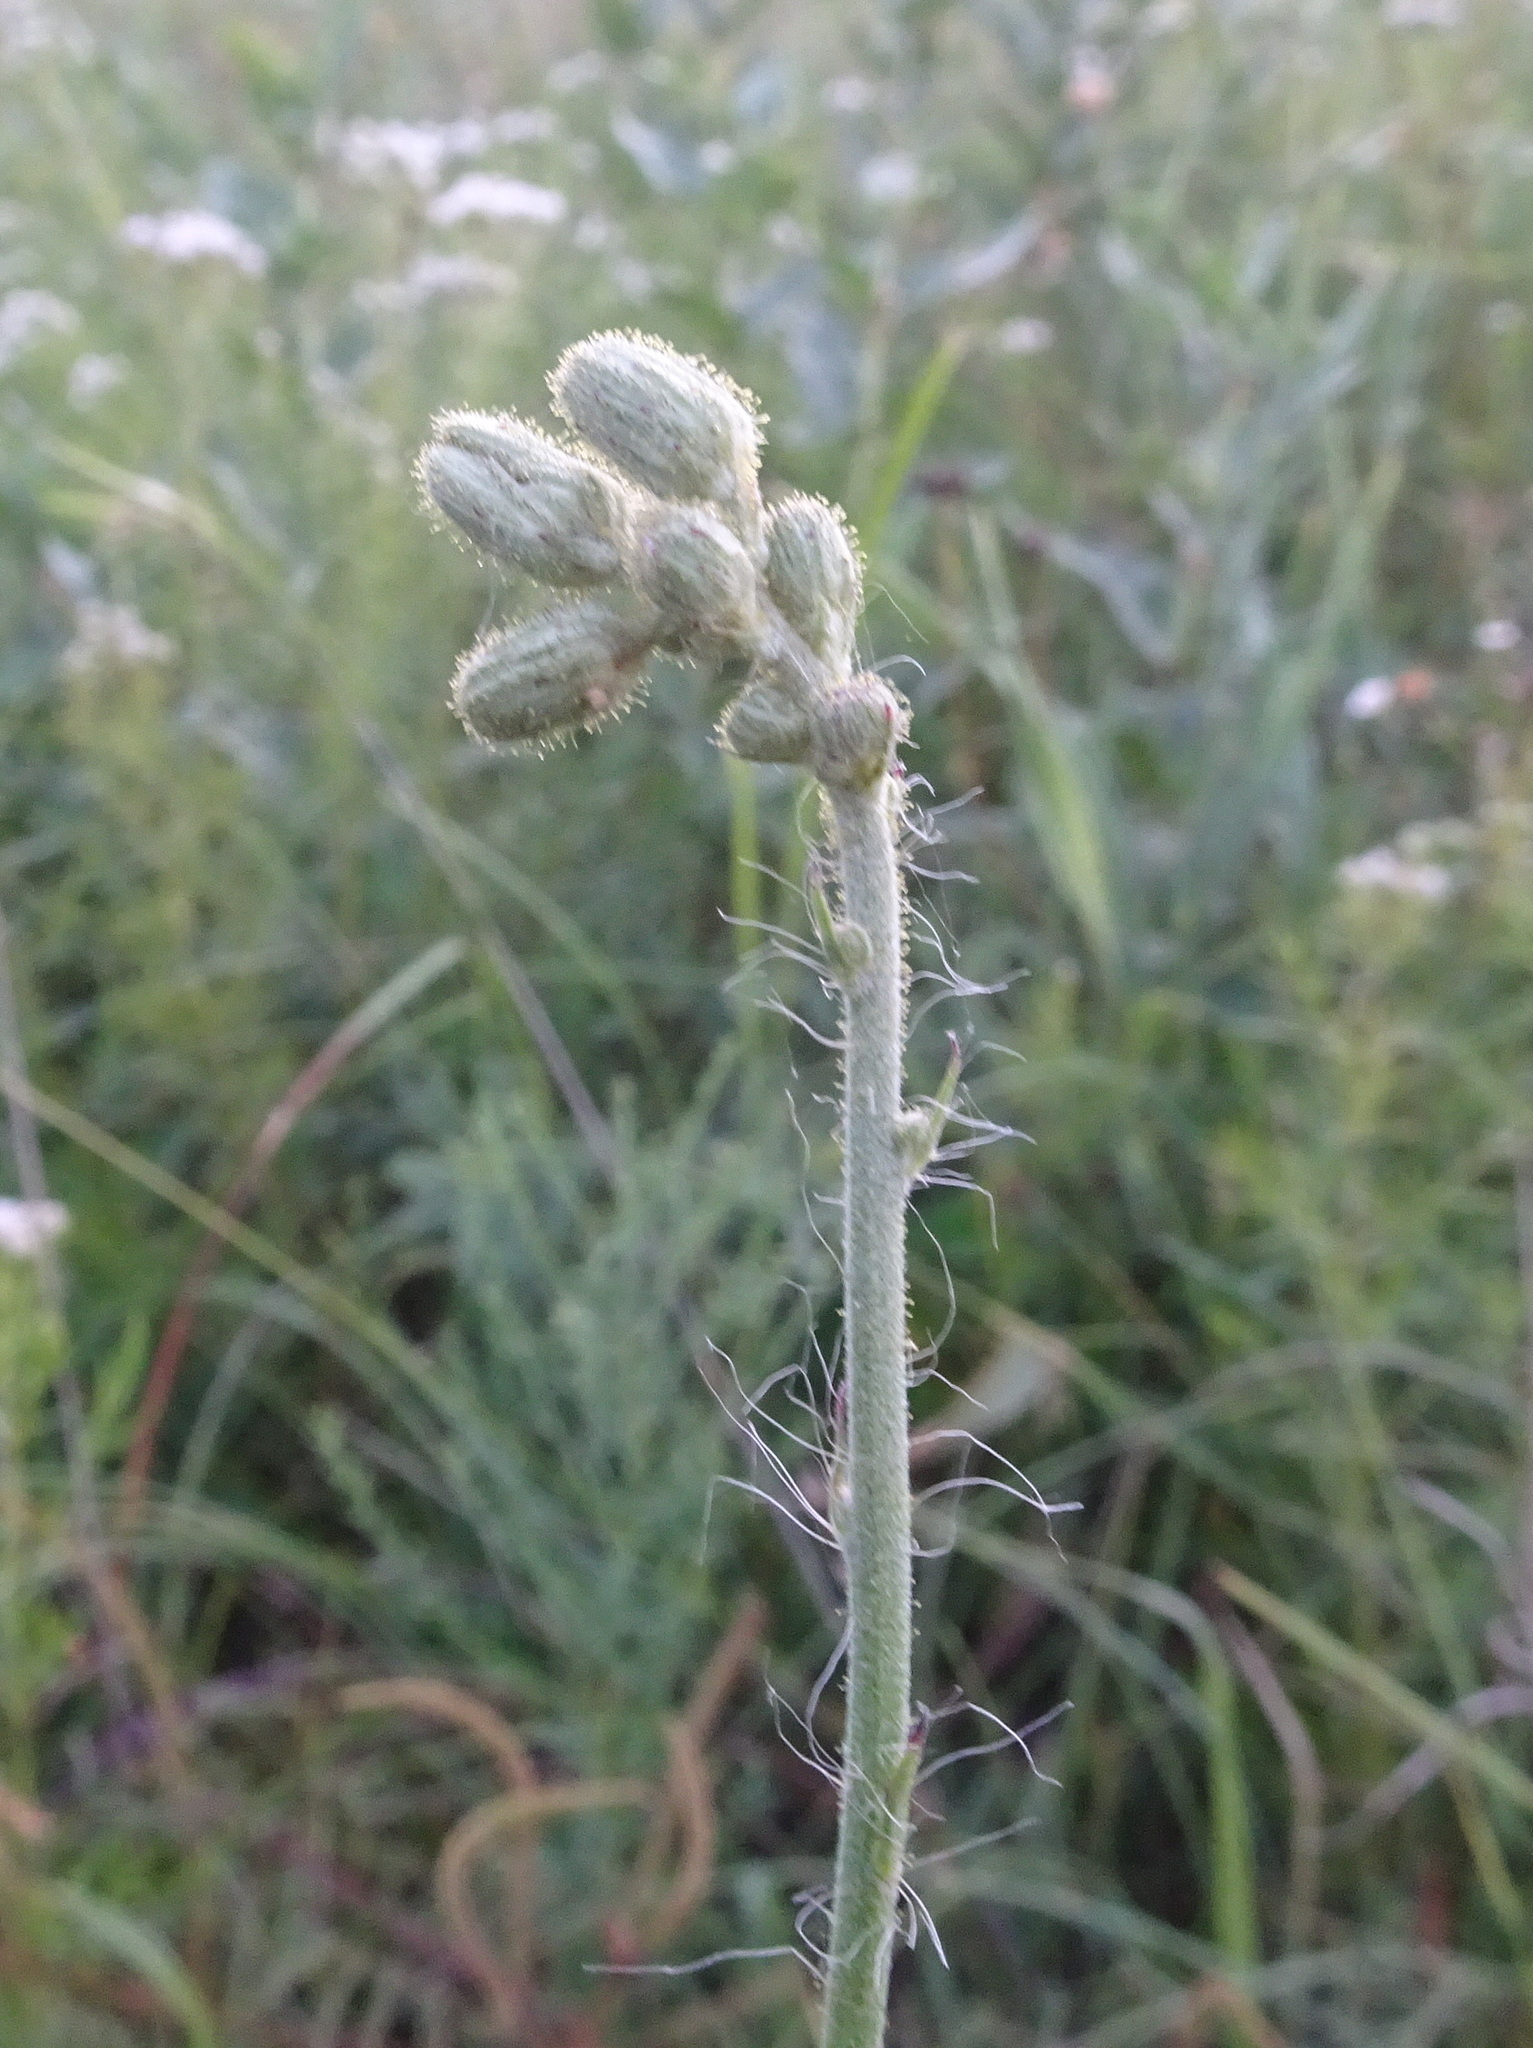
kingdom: Plantae
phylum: Tracheophyta
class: Magnoliopsida
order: Asterales
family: Asteraceae
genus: Hieracium
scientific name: Hieracium longipilum
